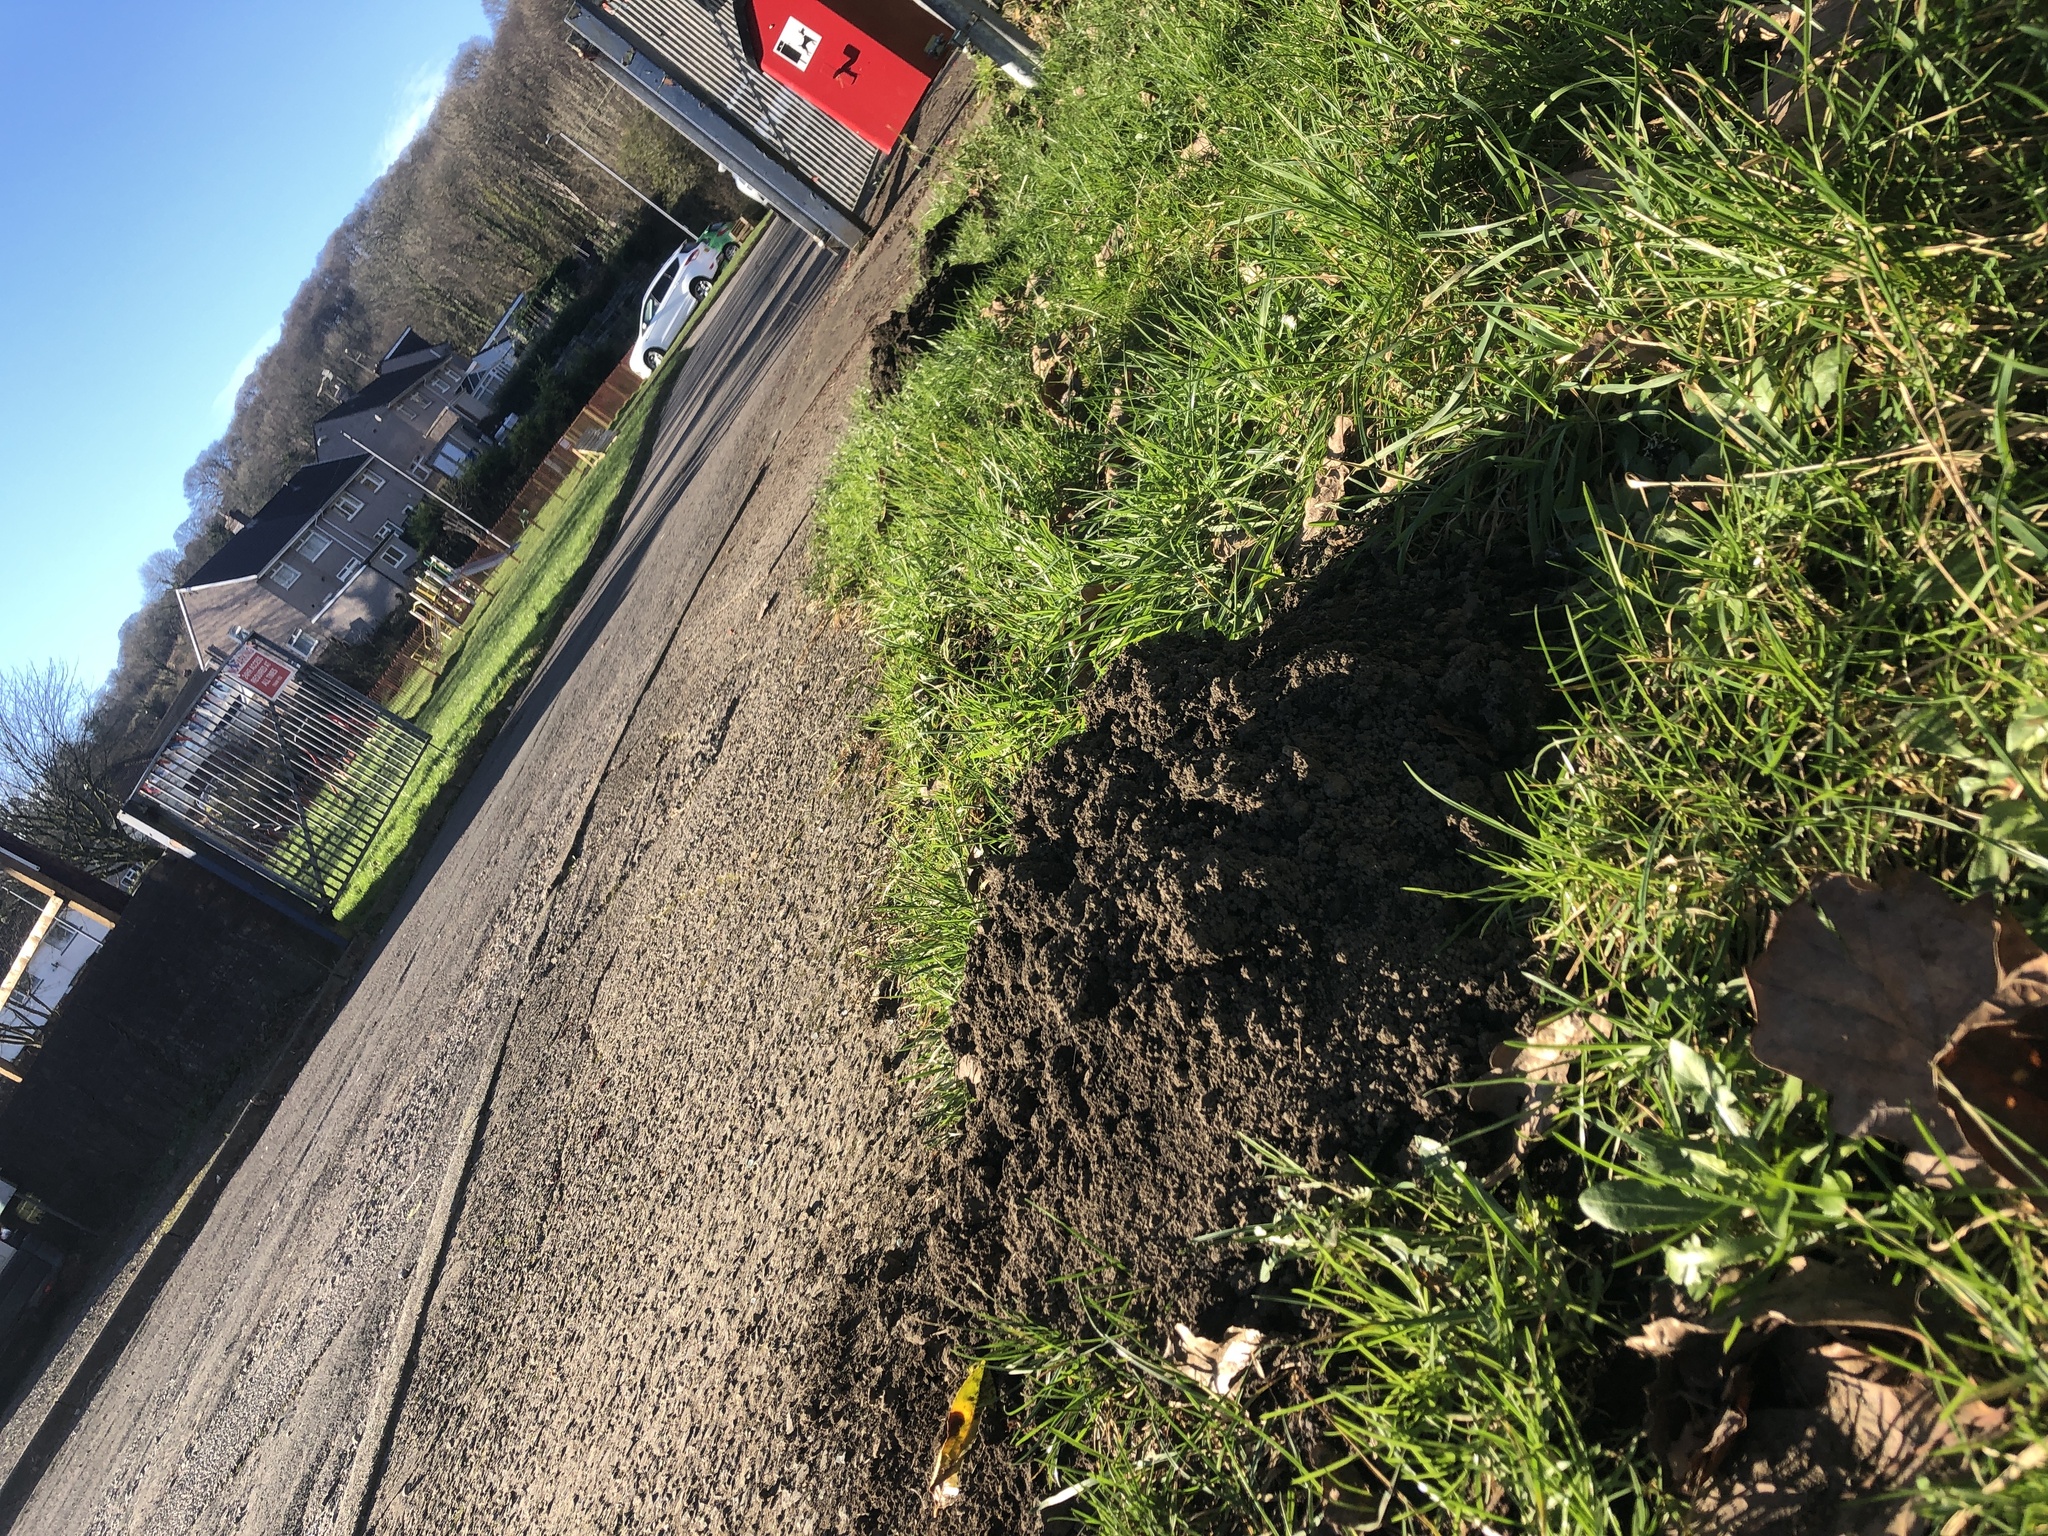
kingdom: Animalia
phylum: Chordata
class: Mammalia
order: Soricomorpha
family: Talpidae
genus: Talpa
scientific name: Talpa europaea
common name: European mole
